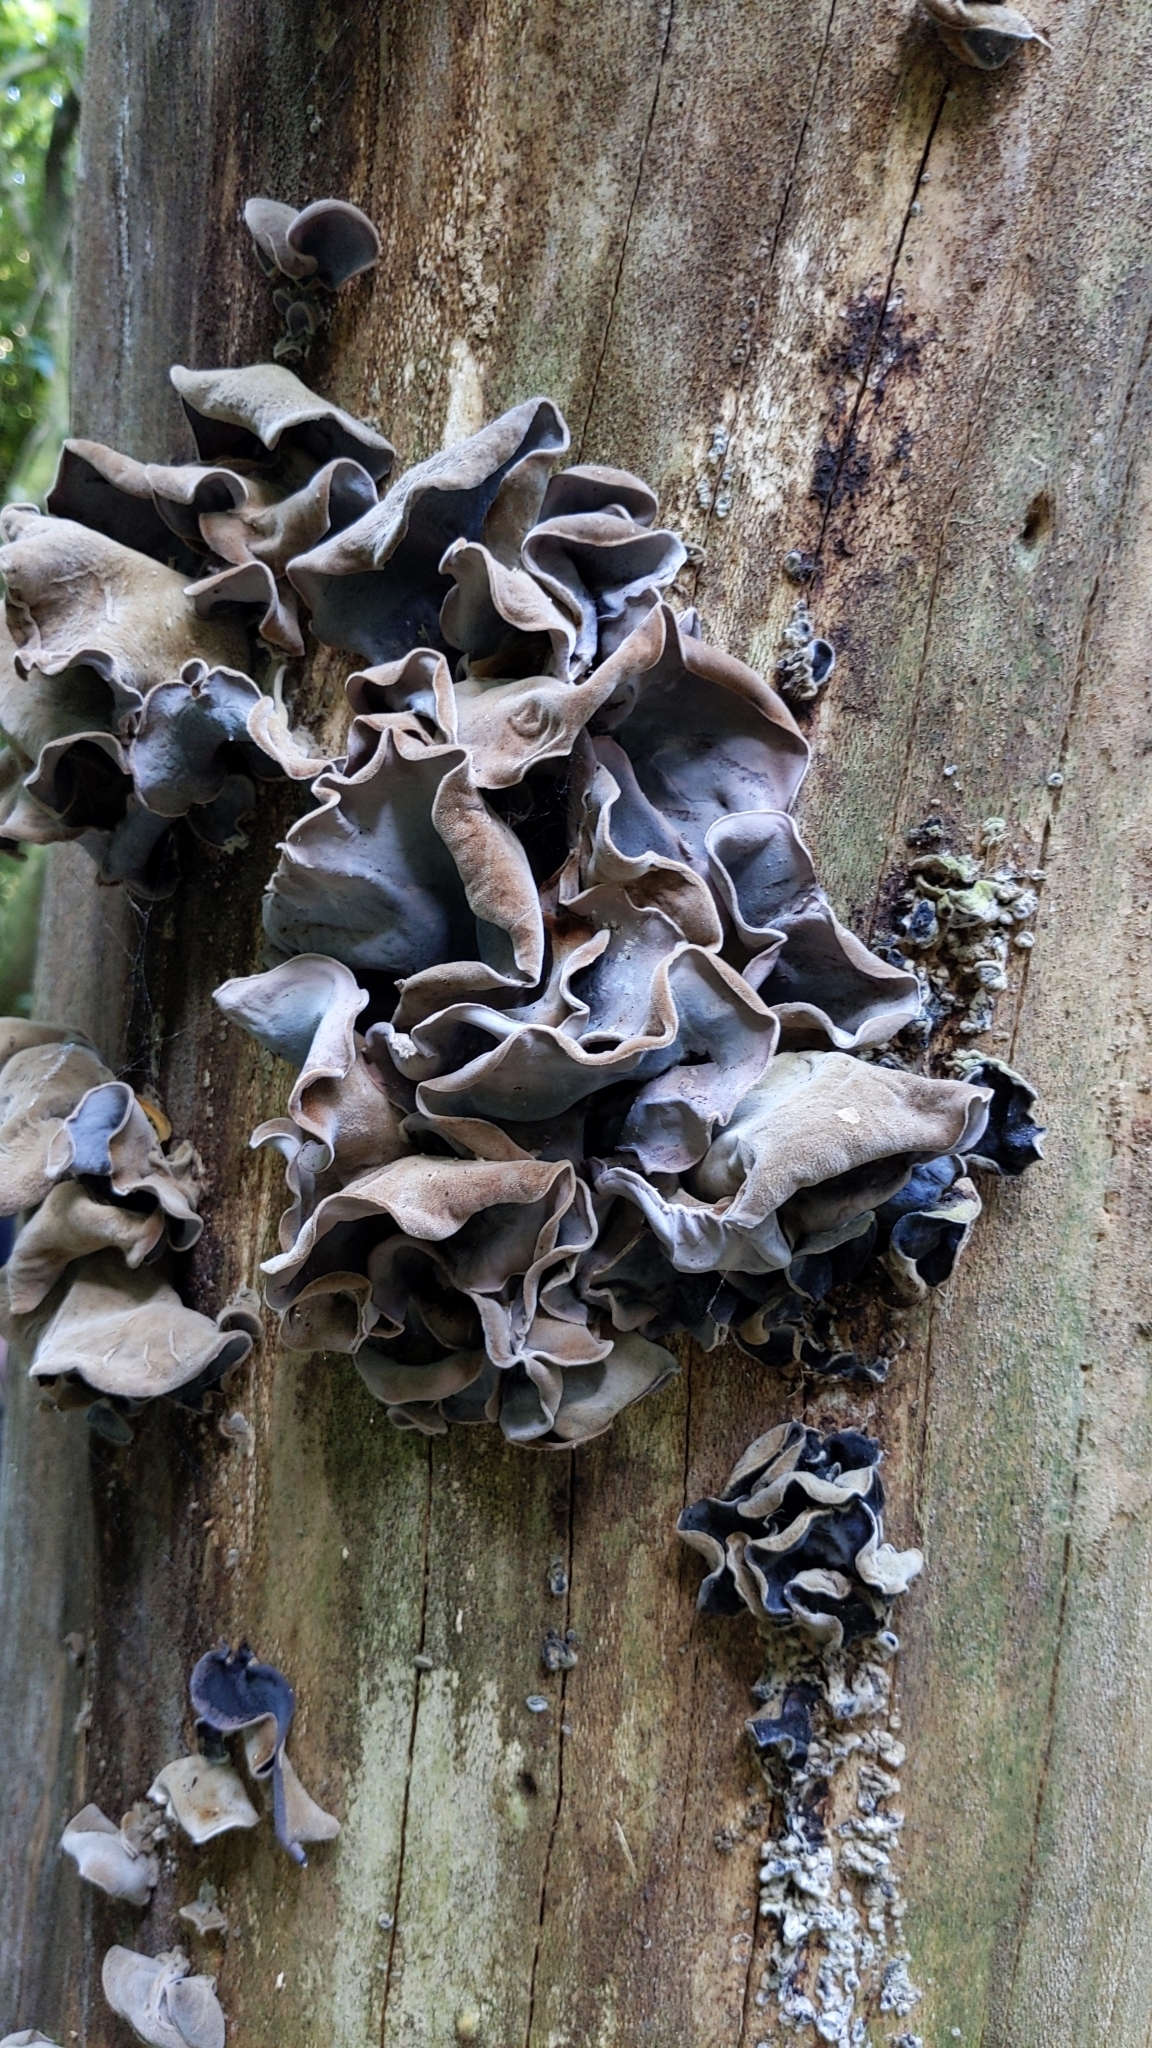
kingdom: Fungi
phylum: Basidiomycota
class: Agaricomycetes
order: Auriculariales
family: Auriculariaceae
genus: Auricularia
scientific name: Auricularia cornea
